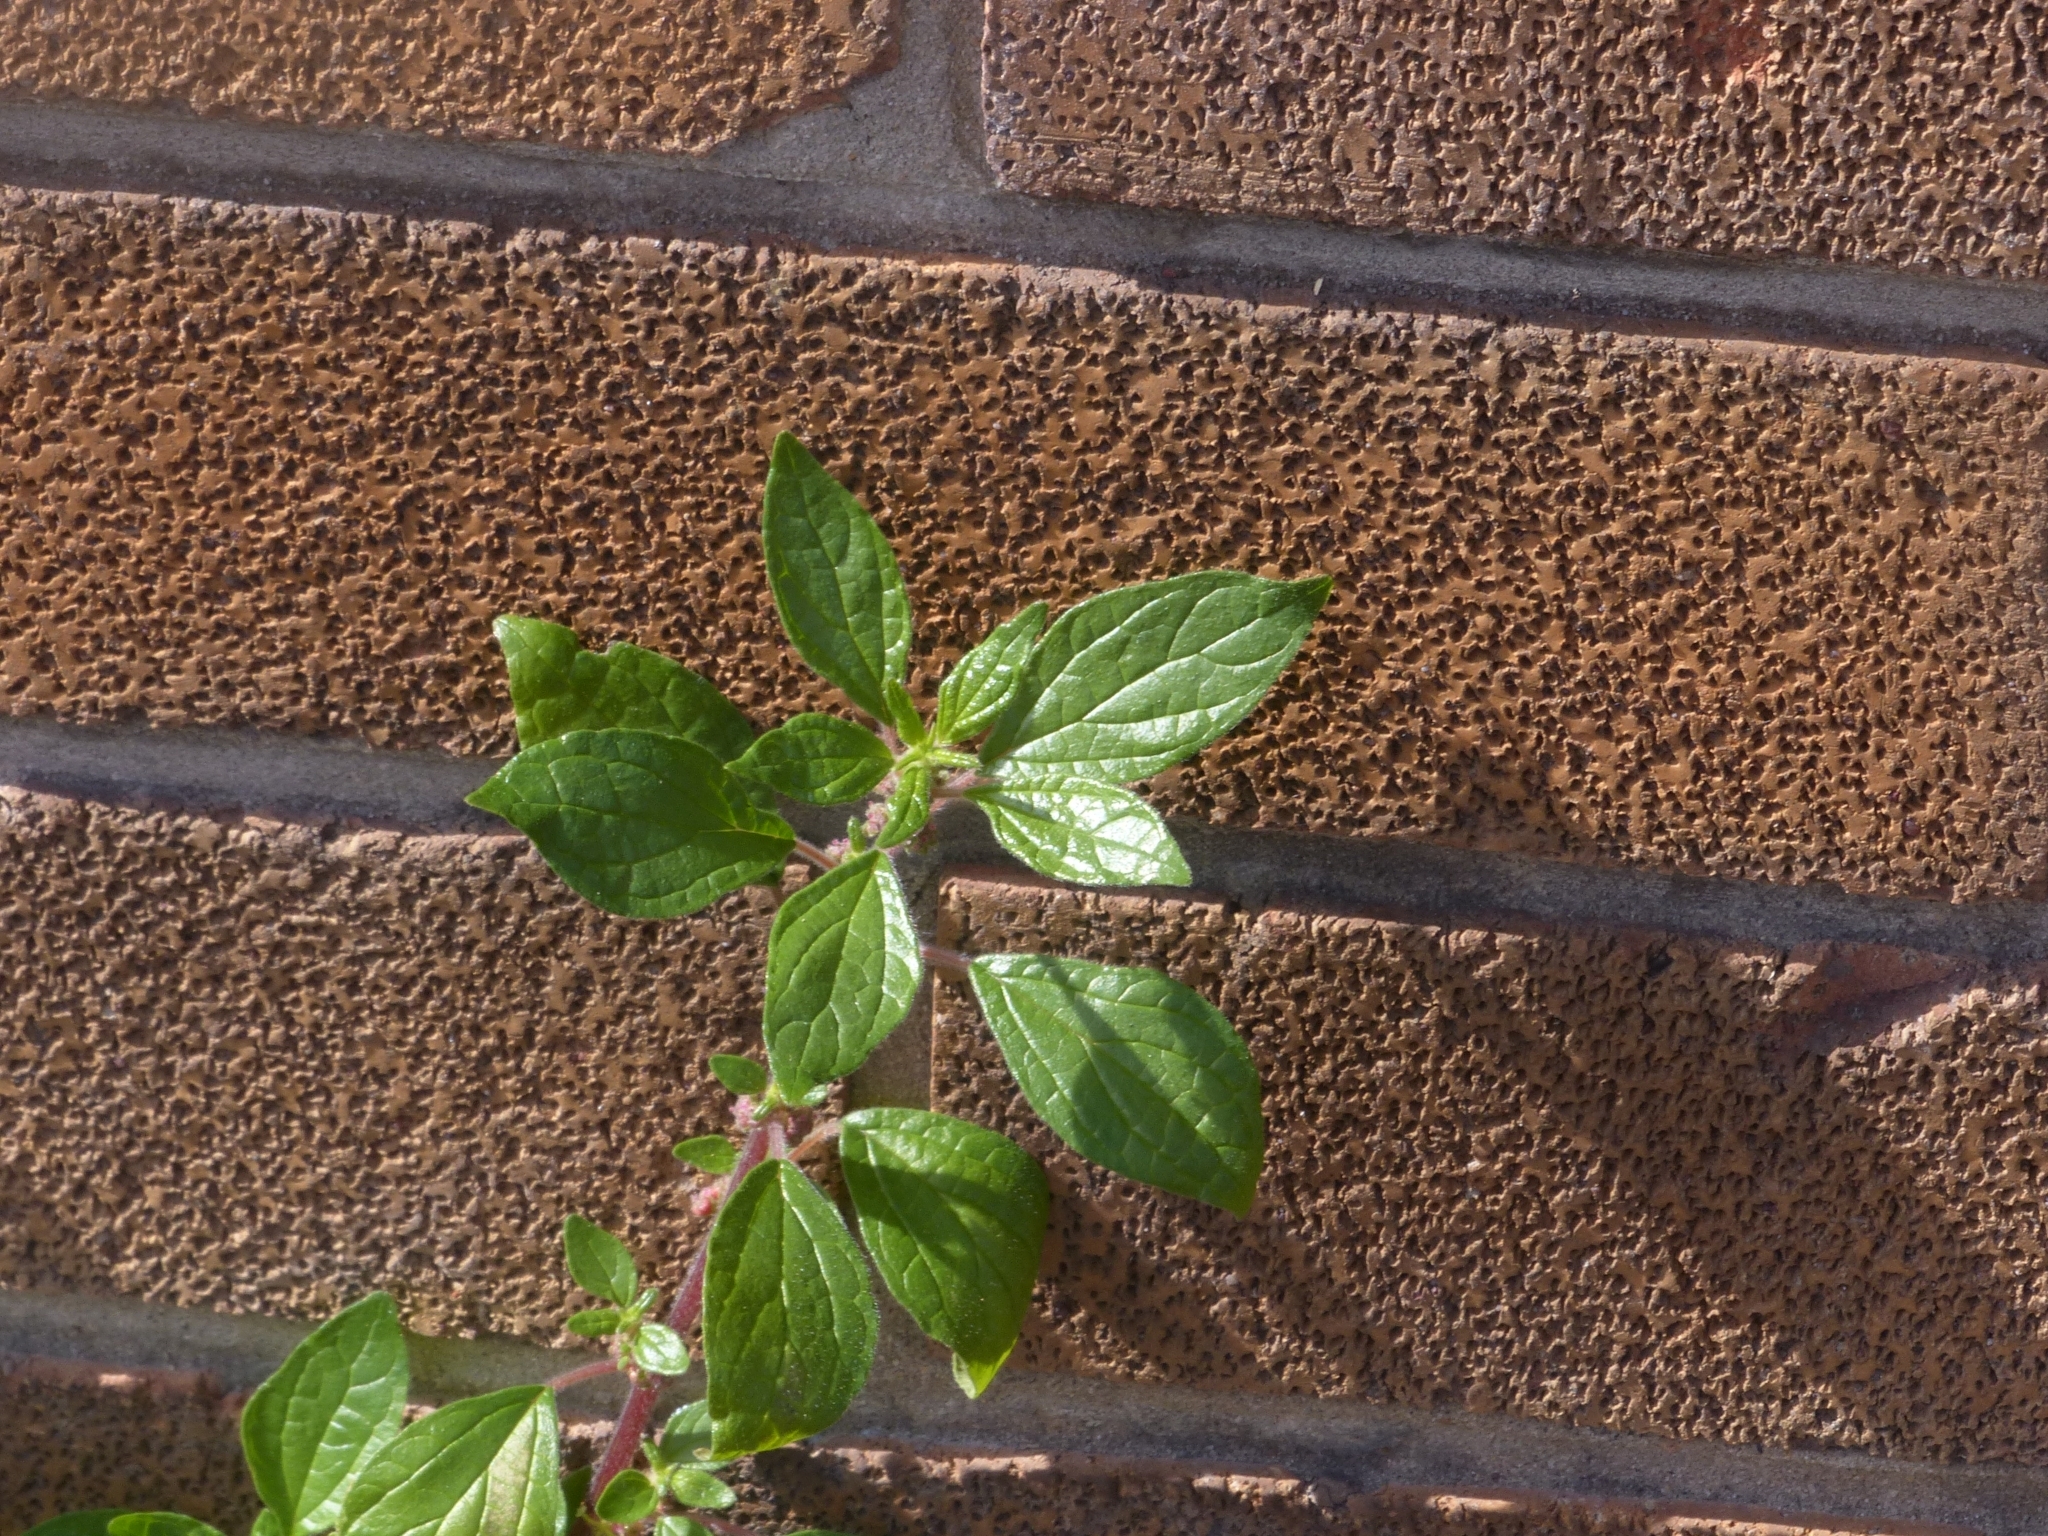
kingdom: Plantae
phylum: Tracheophyta
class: Magnoliopsida
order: Rosales
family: Urticaceae
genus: Parietaria
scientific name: Parietaria judaica
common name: Pellitory-of-the-wall
